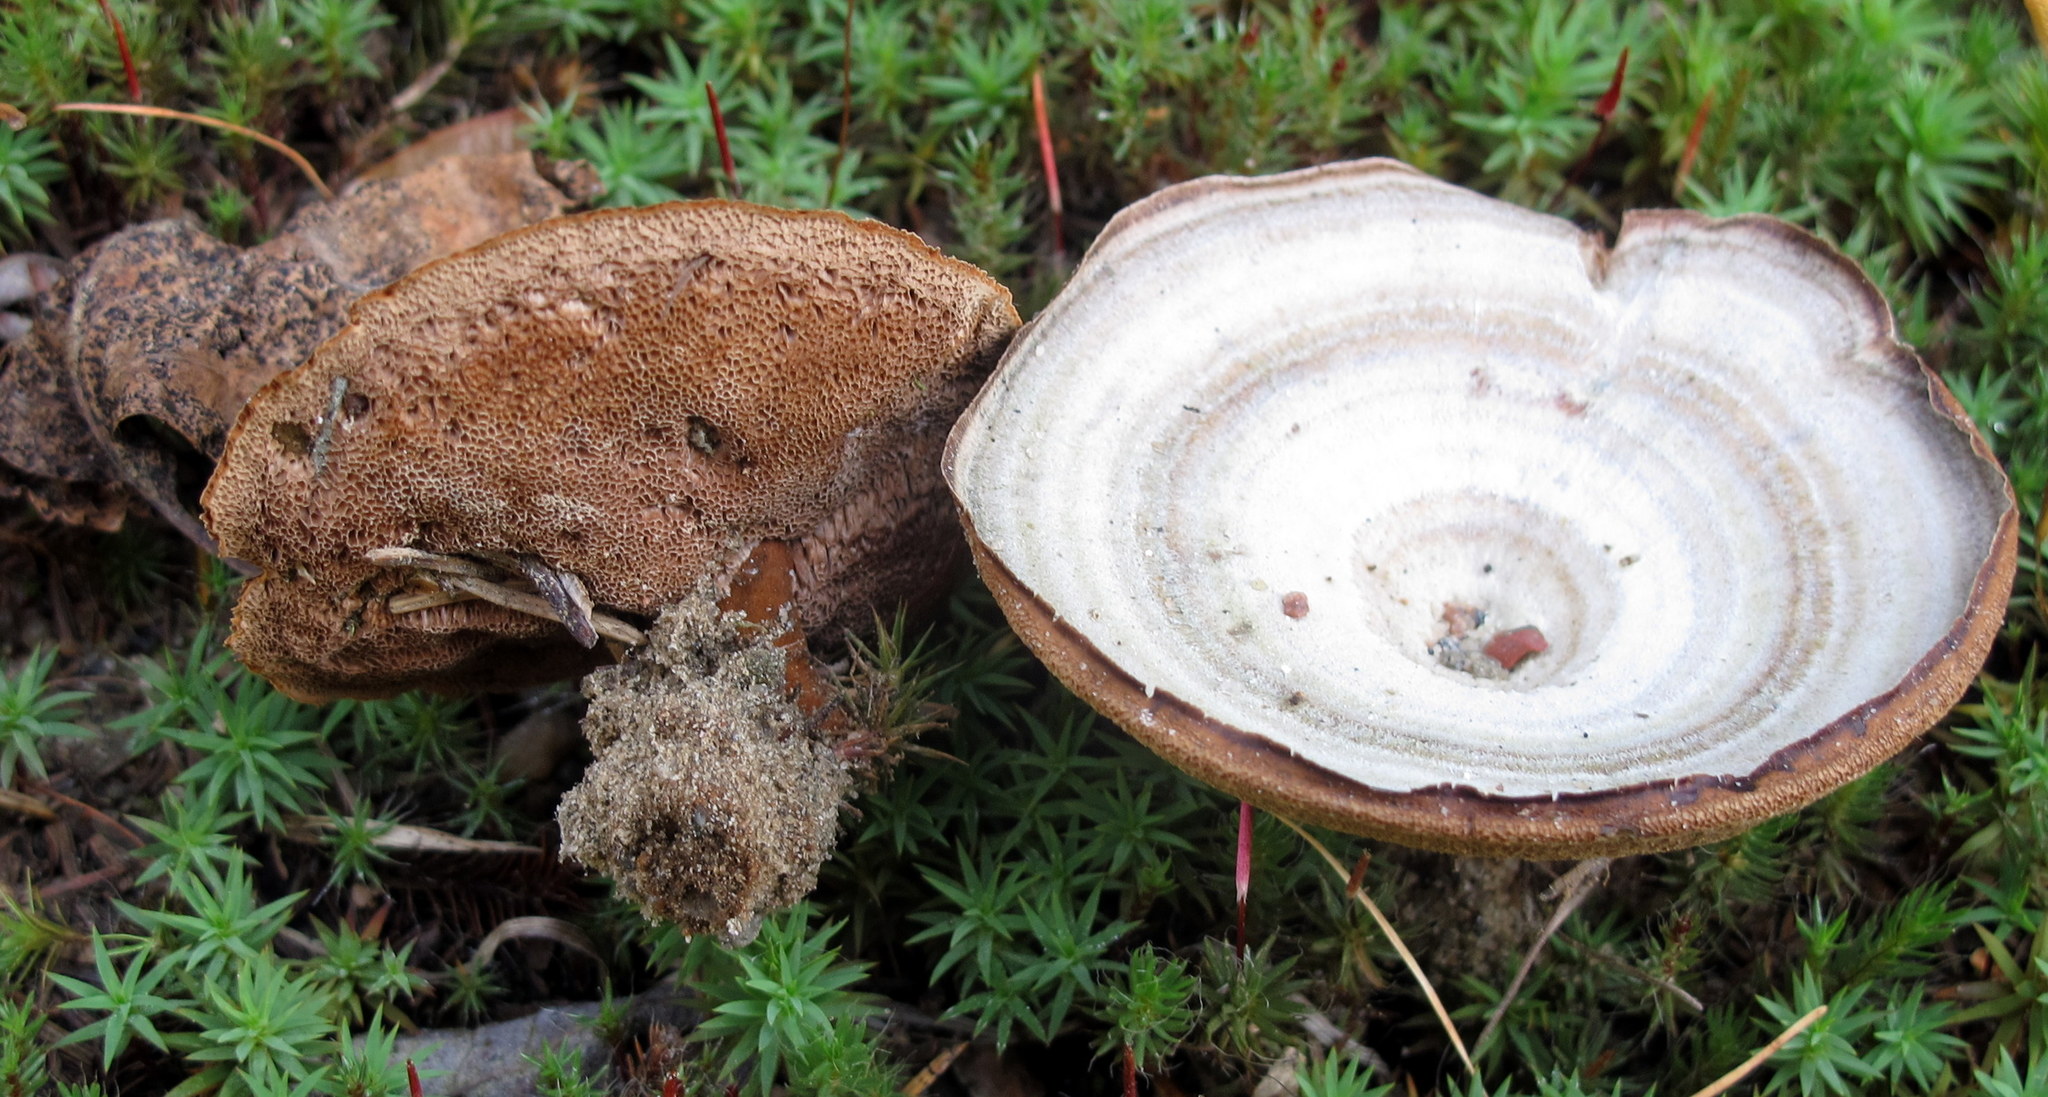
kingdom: Fungi
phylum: Basidiomycota
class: Agaricomycetes
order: Hymenochaetales
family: Hymenochaetaceae
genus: Coltricia
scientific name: Coltricia perennis
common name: Tiger's eye
